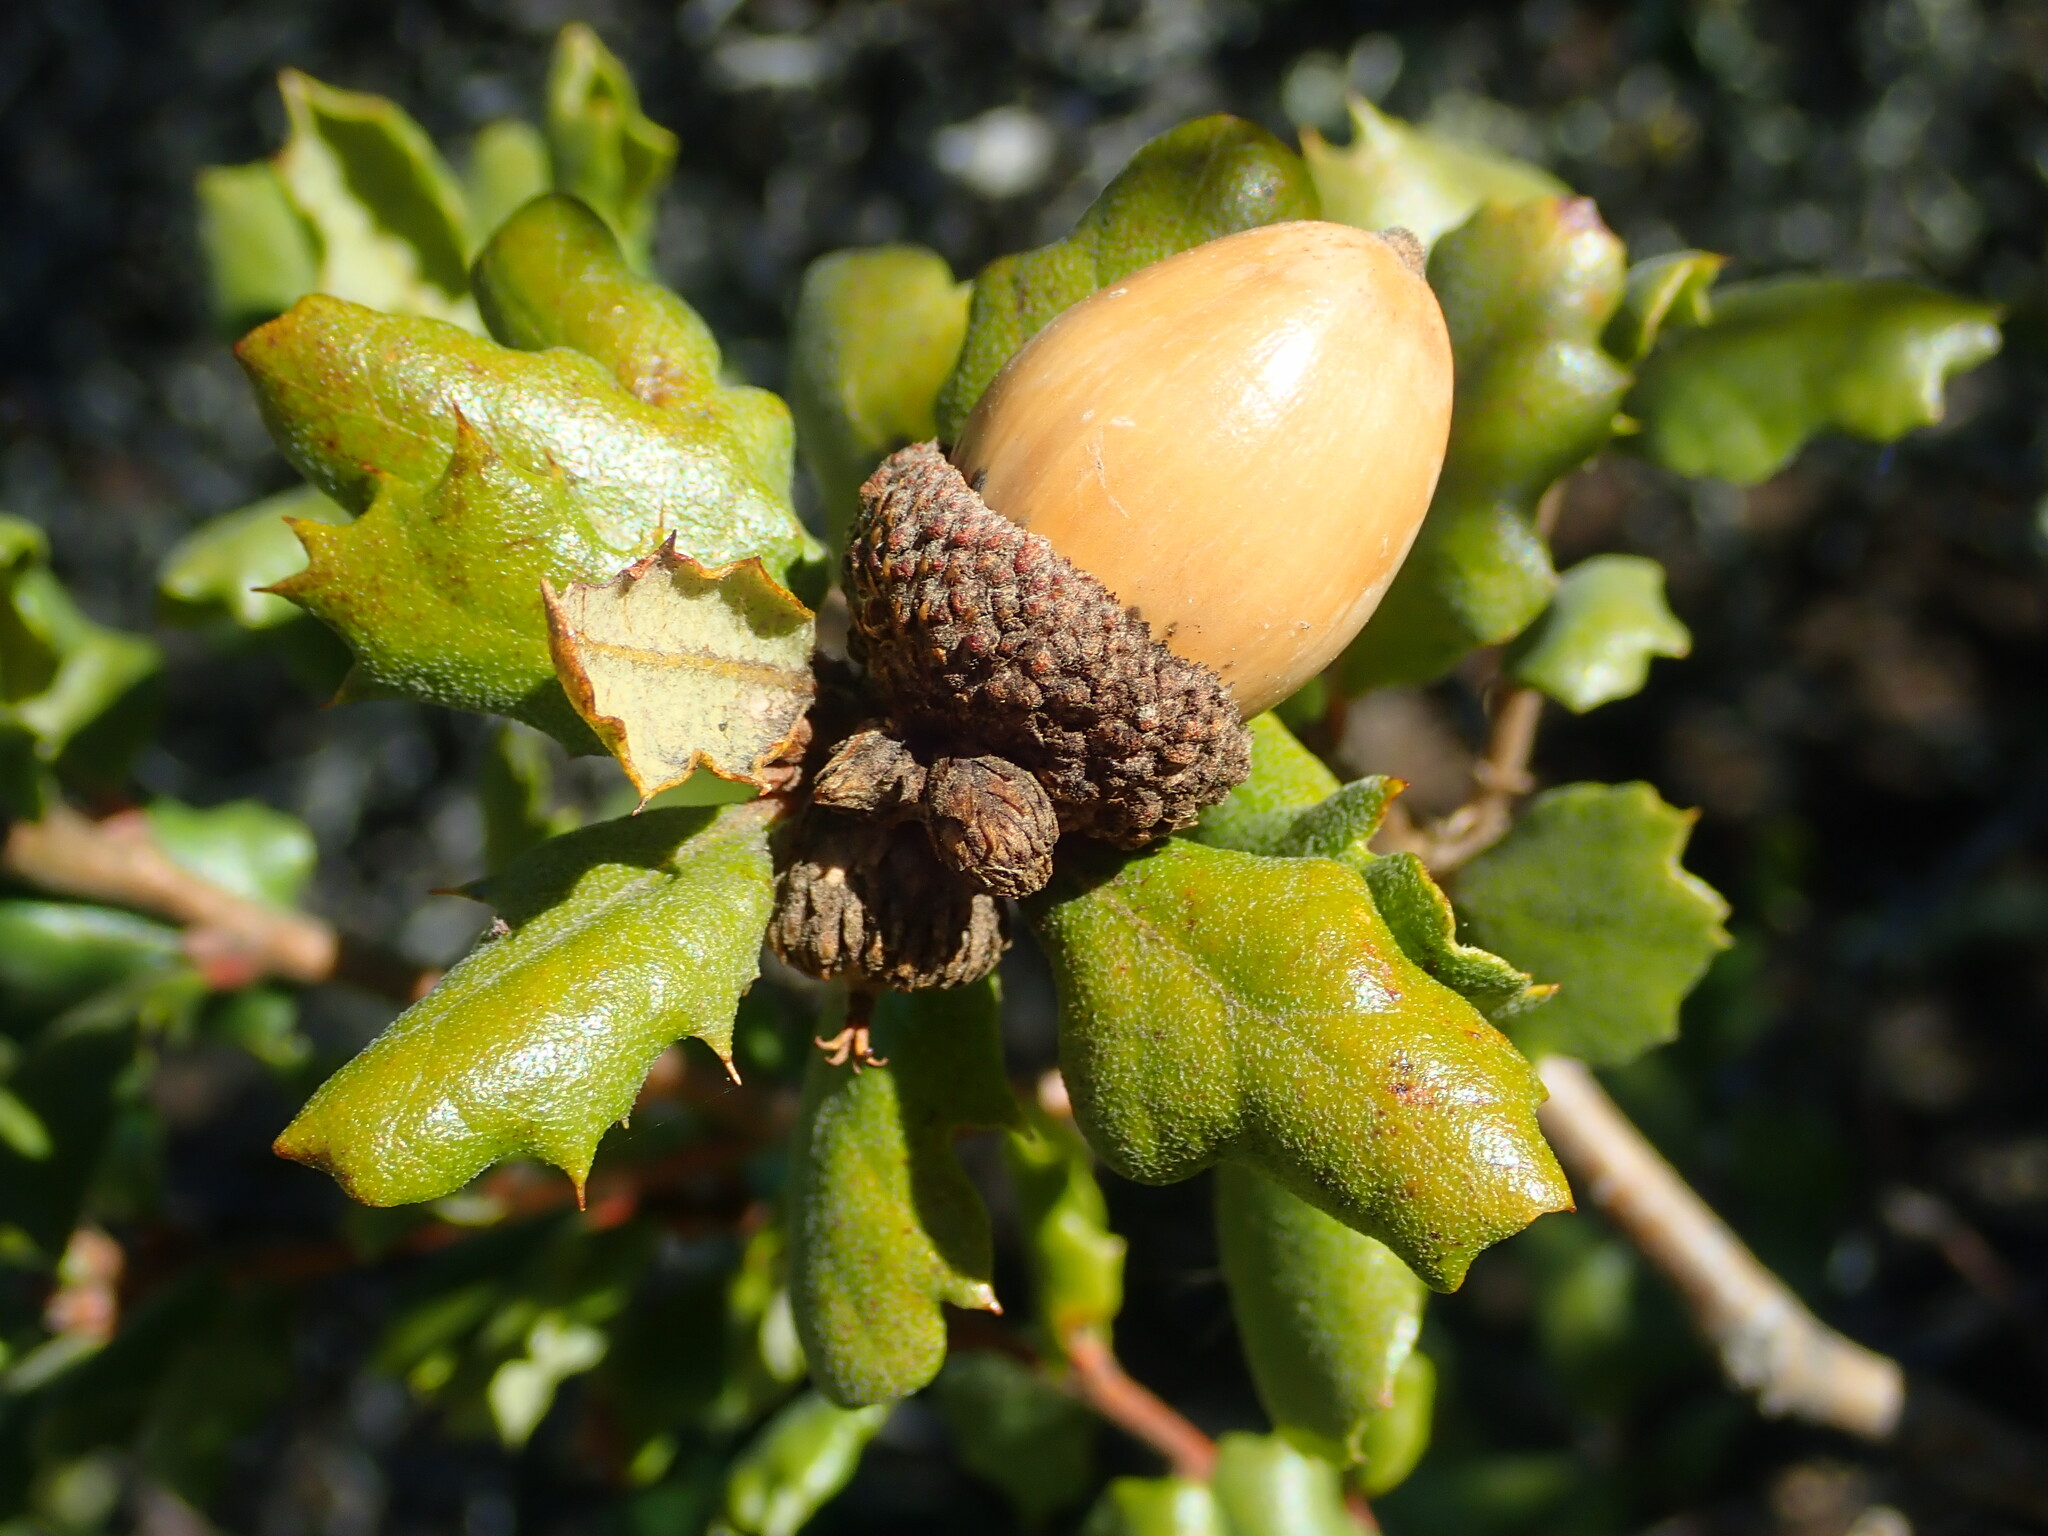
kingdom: Plantae
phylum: Tracheophyta
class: Magnoliopsida
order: Fagales
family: Fagaceae
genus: Quercus
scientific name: Quercus durata
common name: Leather oak
